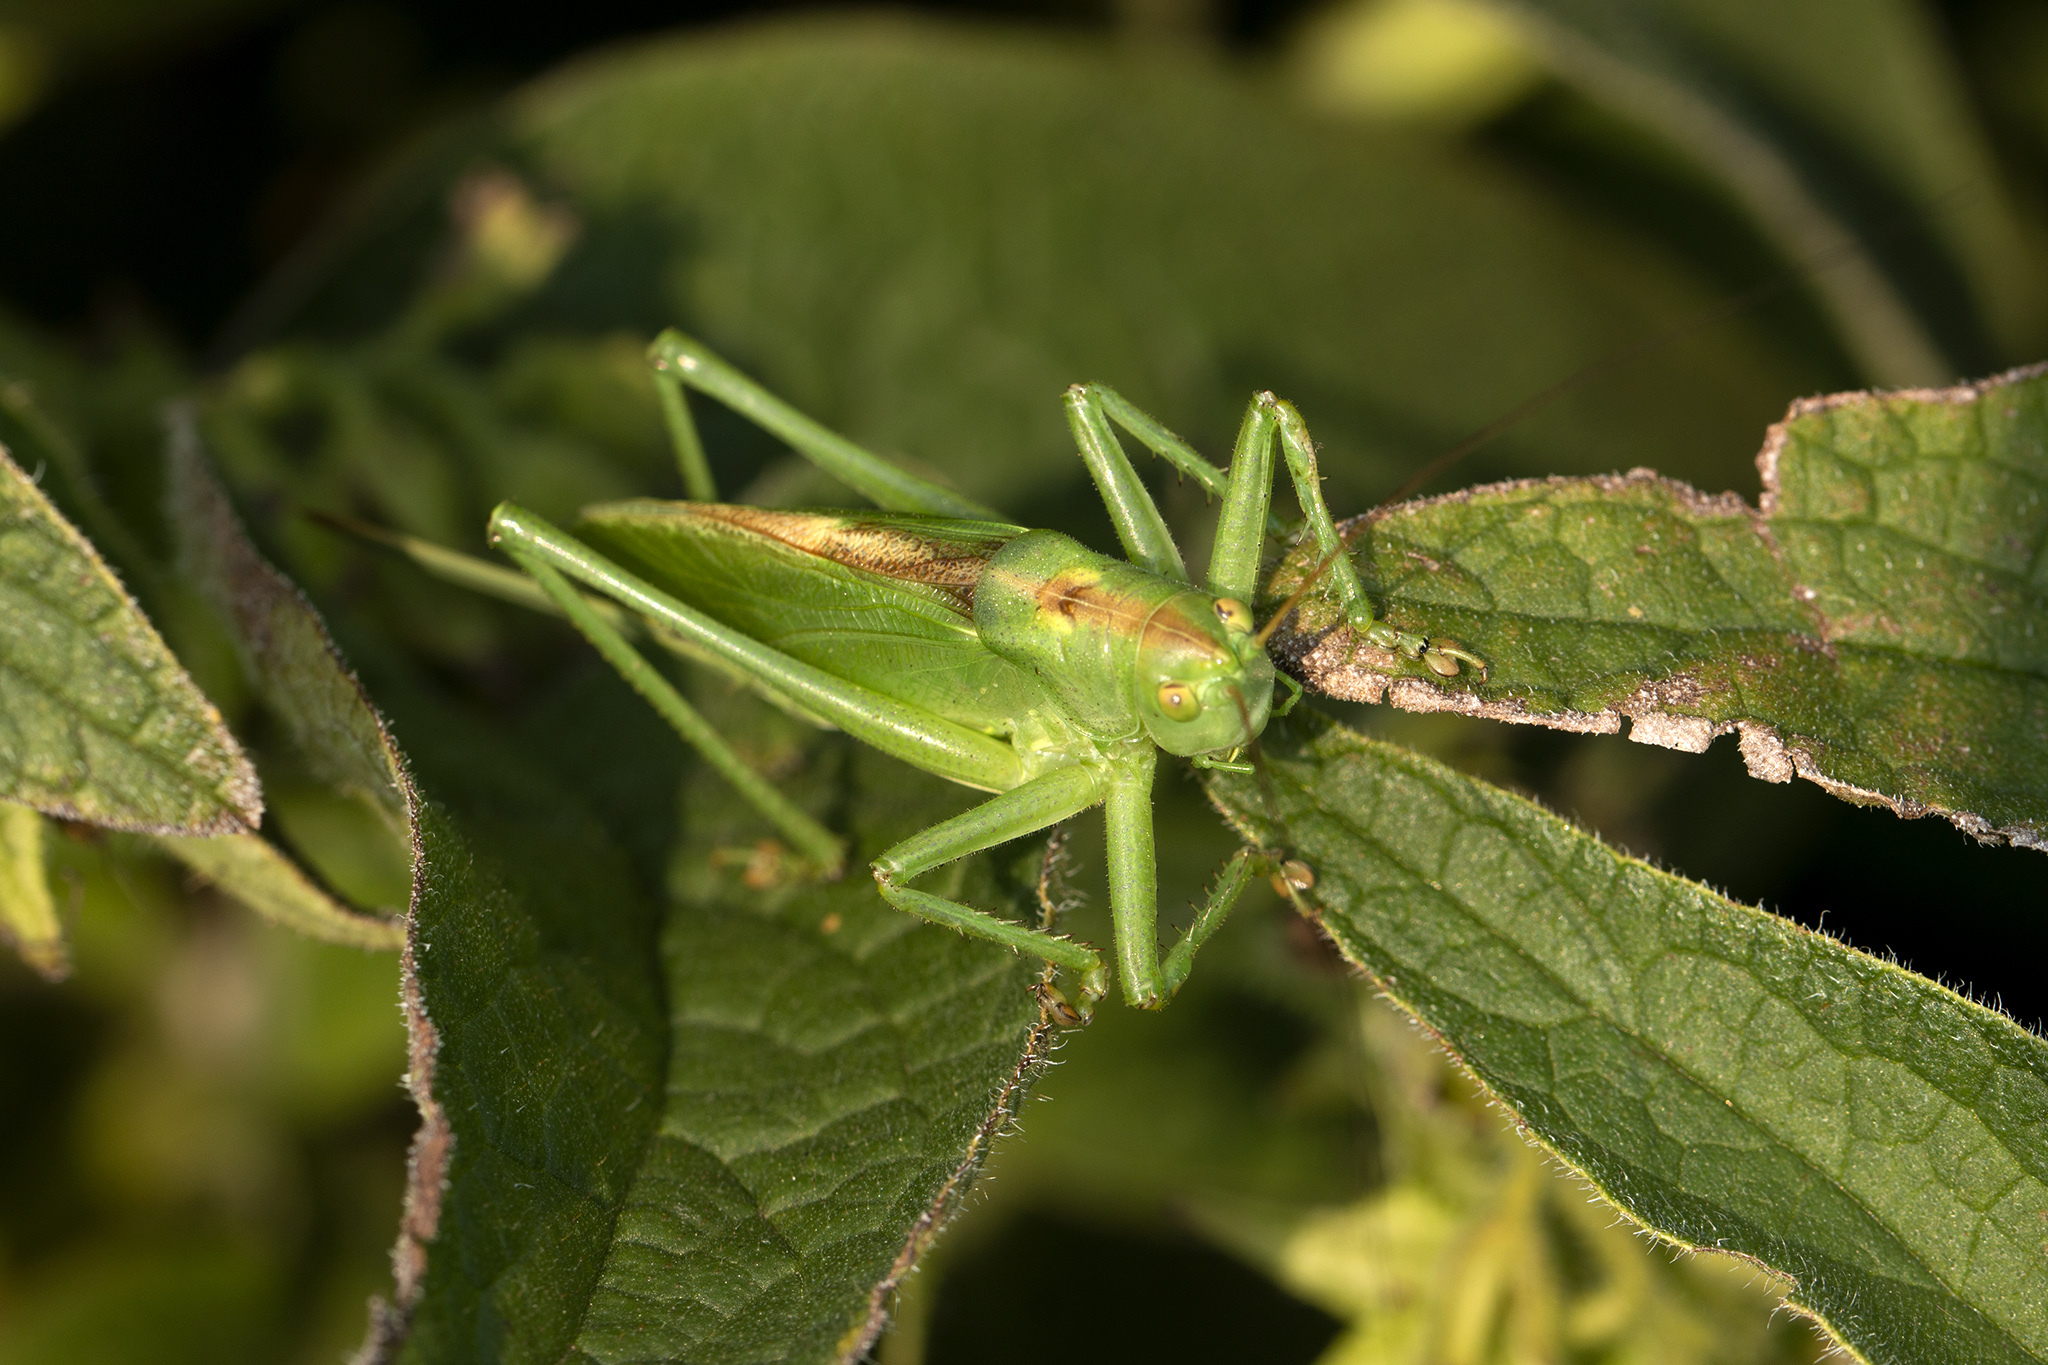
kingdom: Animalia
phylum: Arthropoda
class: Insecta
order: Orthoptera
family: Tettigoniidae
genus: Tettigonia
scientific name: Tettigonia cantans
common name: Upland green bush-cricket
